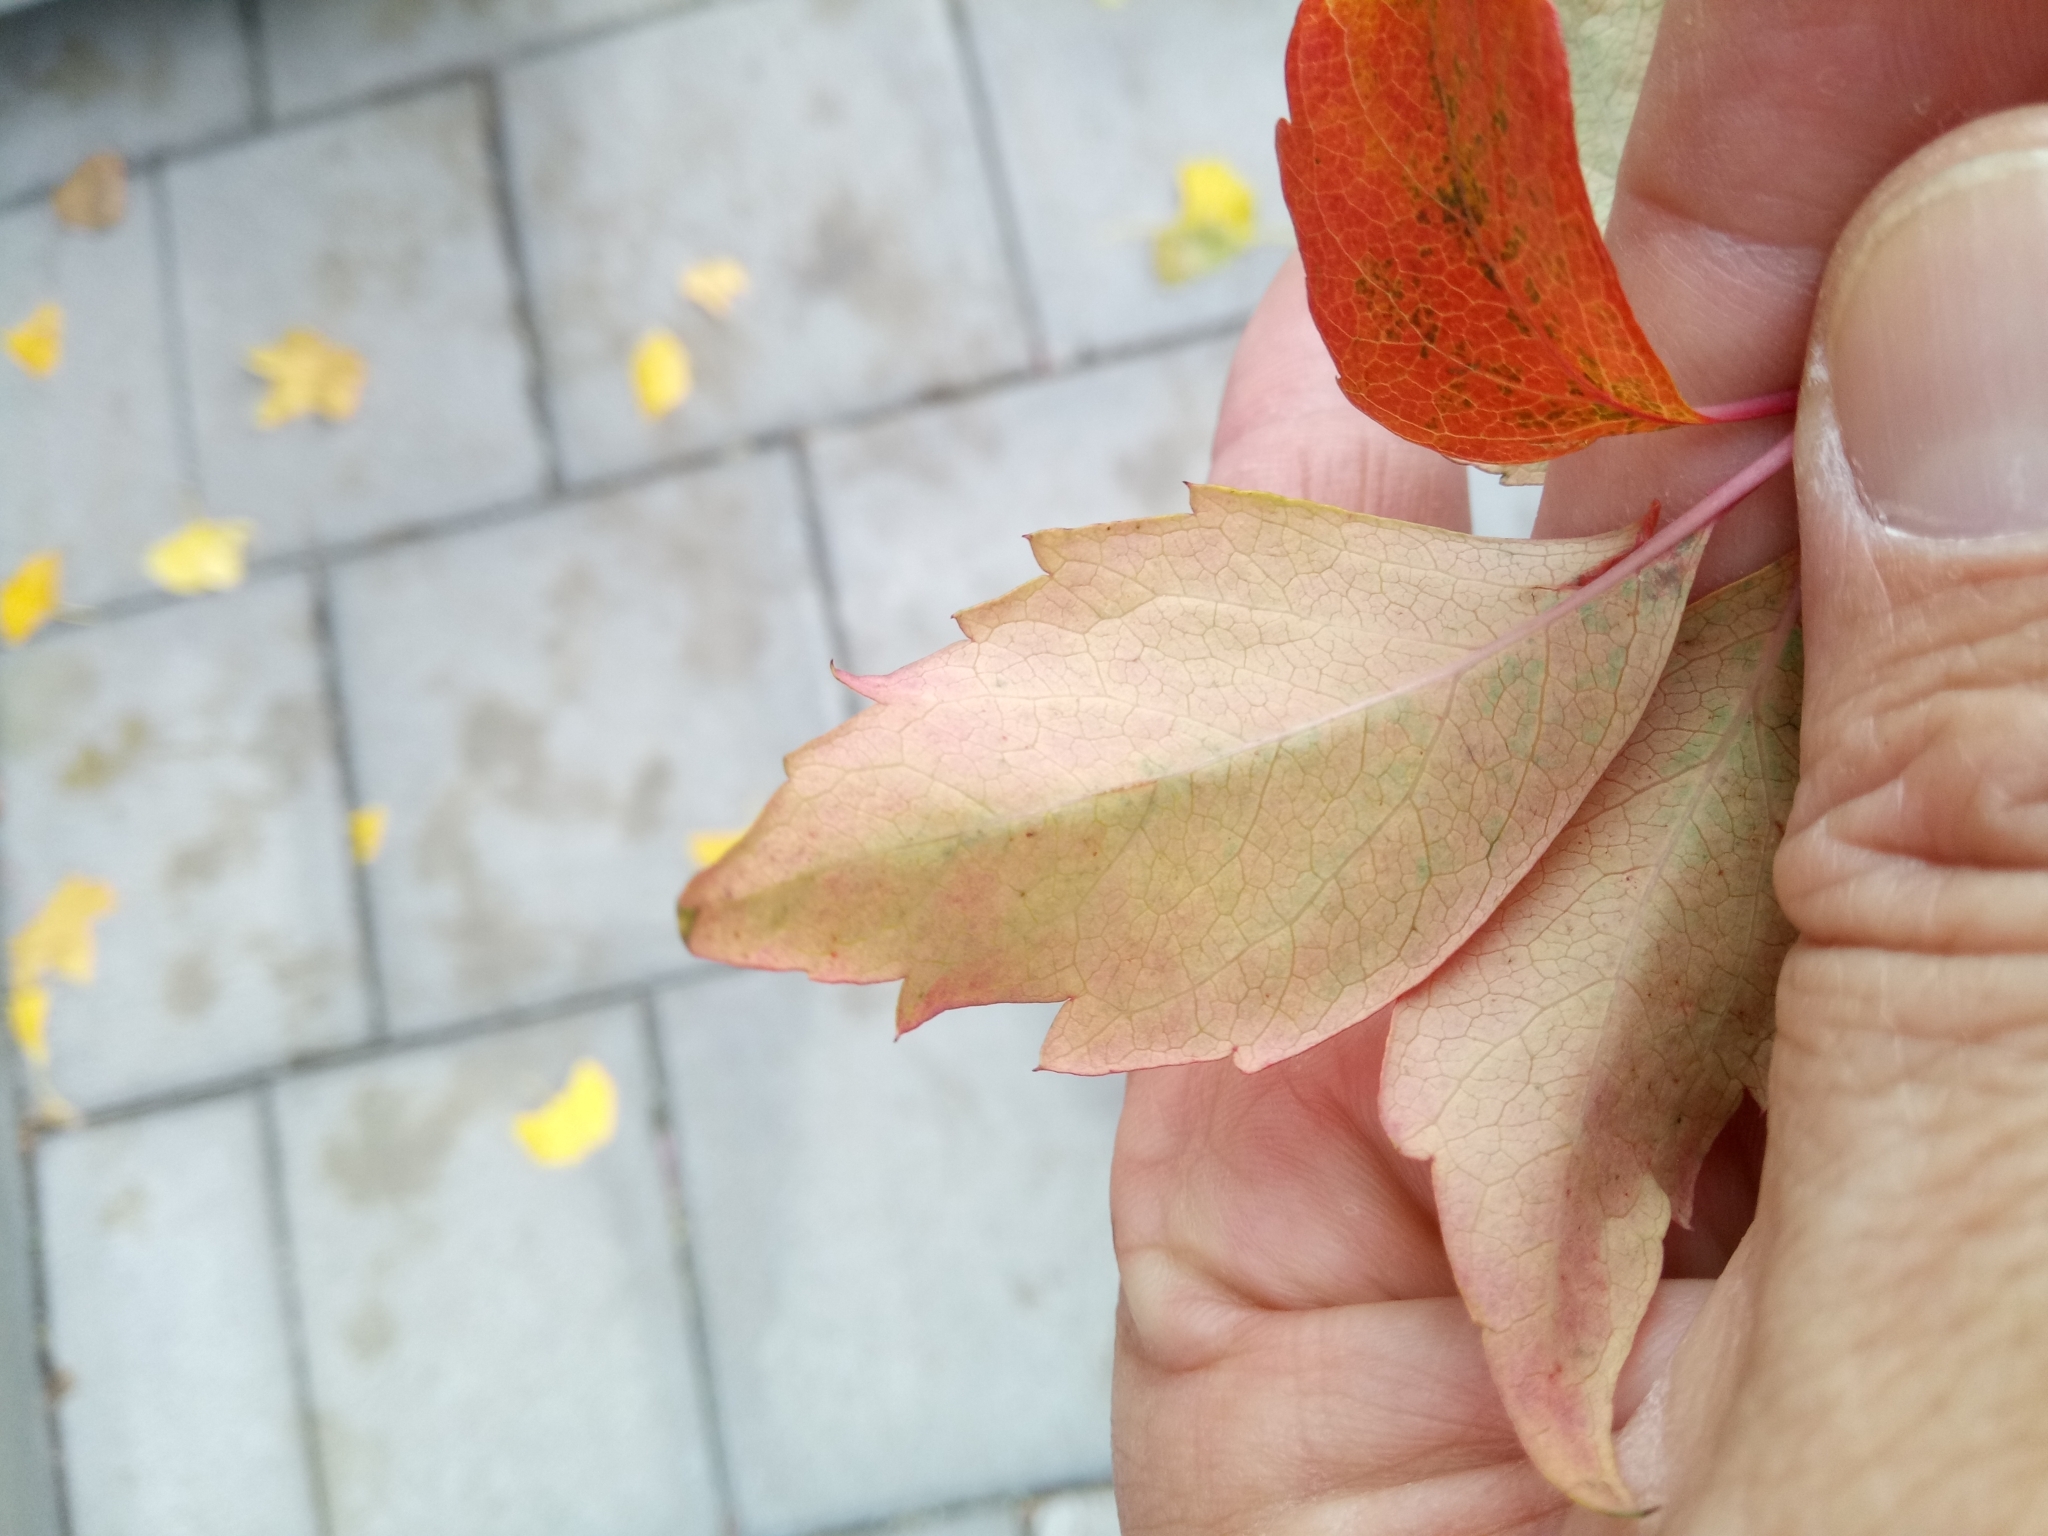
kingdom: Plantae
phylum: Tracheophyta
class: Magnoliopsida
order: Vitales
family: Vitaceae
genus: Parthenocissus
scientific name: Parthenocissus quinquefolia
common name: Virginia-creeper
